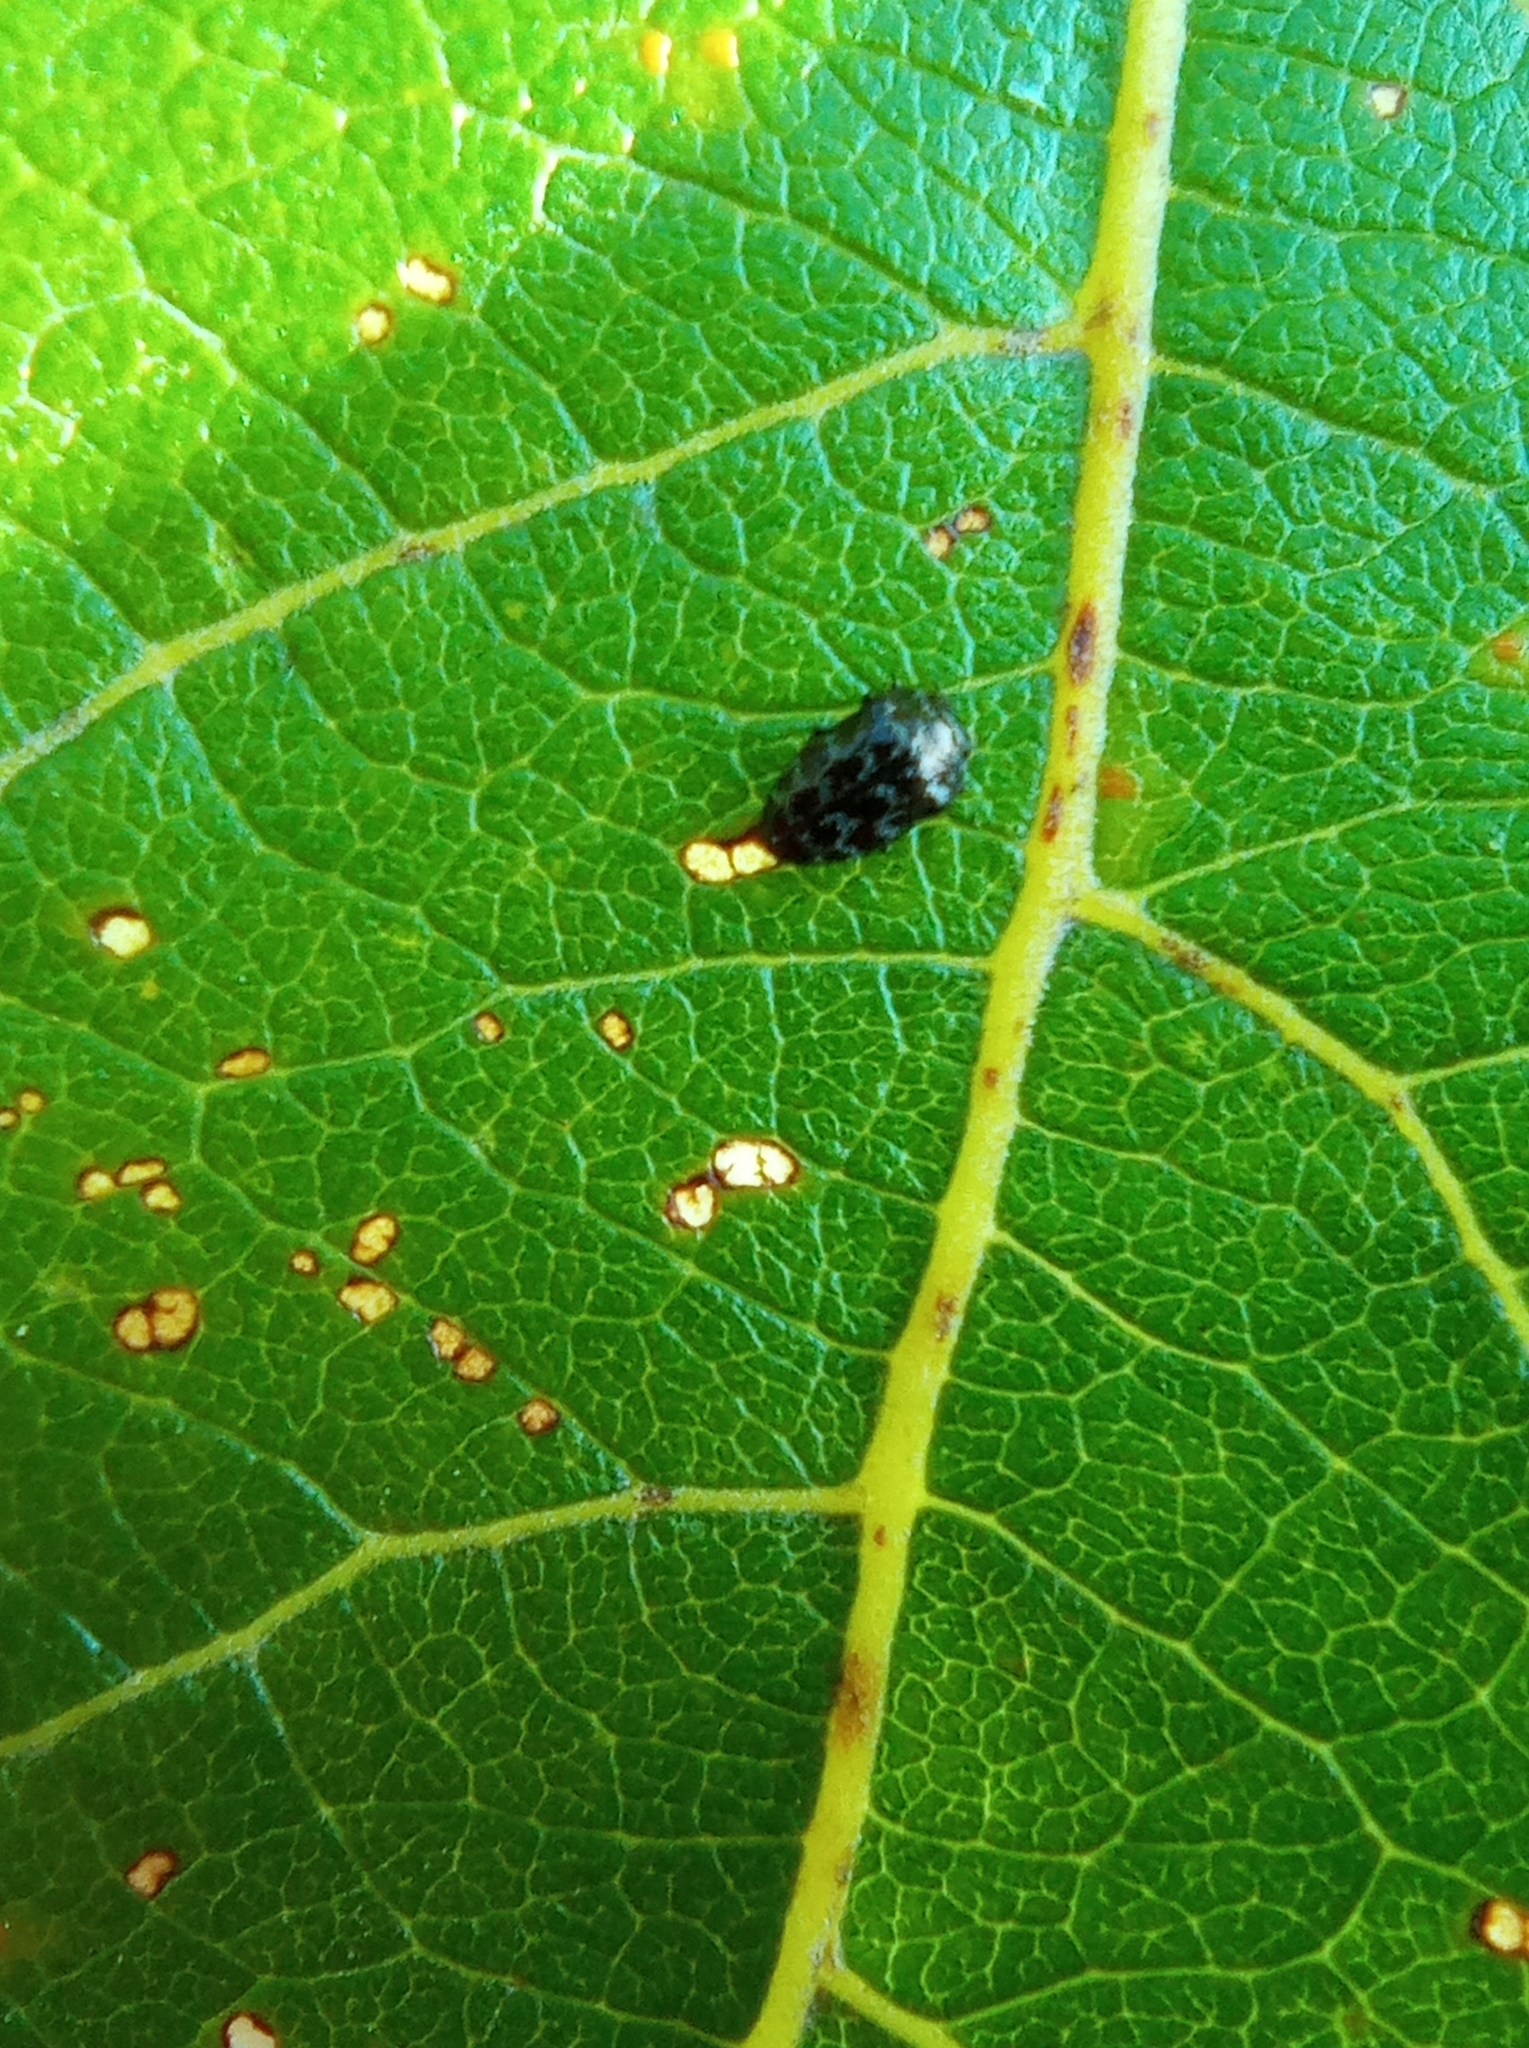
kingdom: Animalia
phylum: Arthropoda
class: Insecta
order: Coleoptera
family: Buprestidae
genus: Trachys
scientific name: Trachys minutus
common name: Metallic wood-boring beetle
